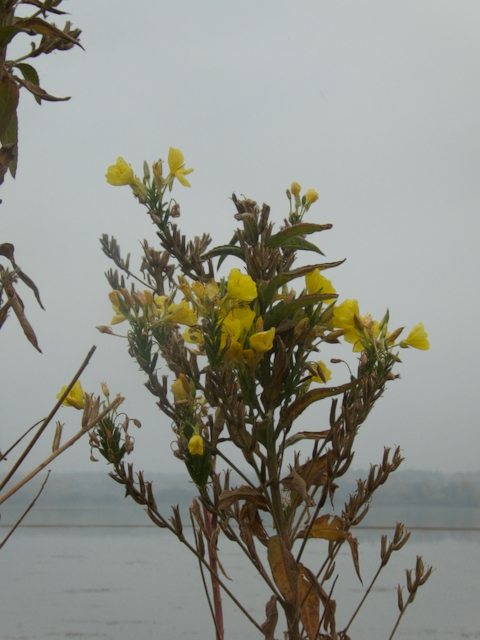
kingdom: Plantae
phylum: Tracheophyta
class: Magnoliopsida
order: Myrtales
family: Onagraceae
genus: Oenothera
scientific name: Oenothera biennis
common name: Common evening-primrose
